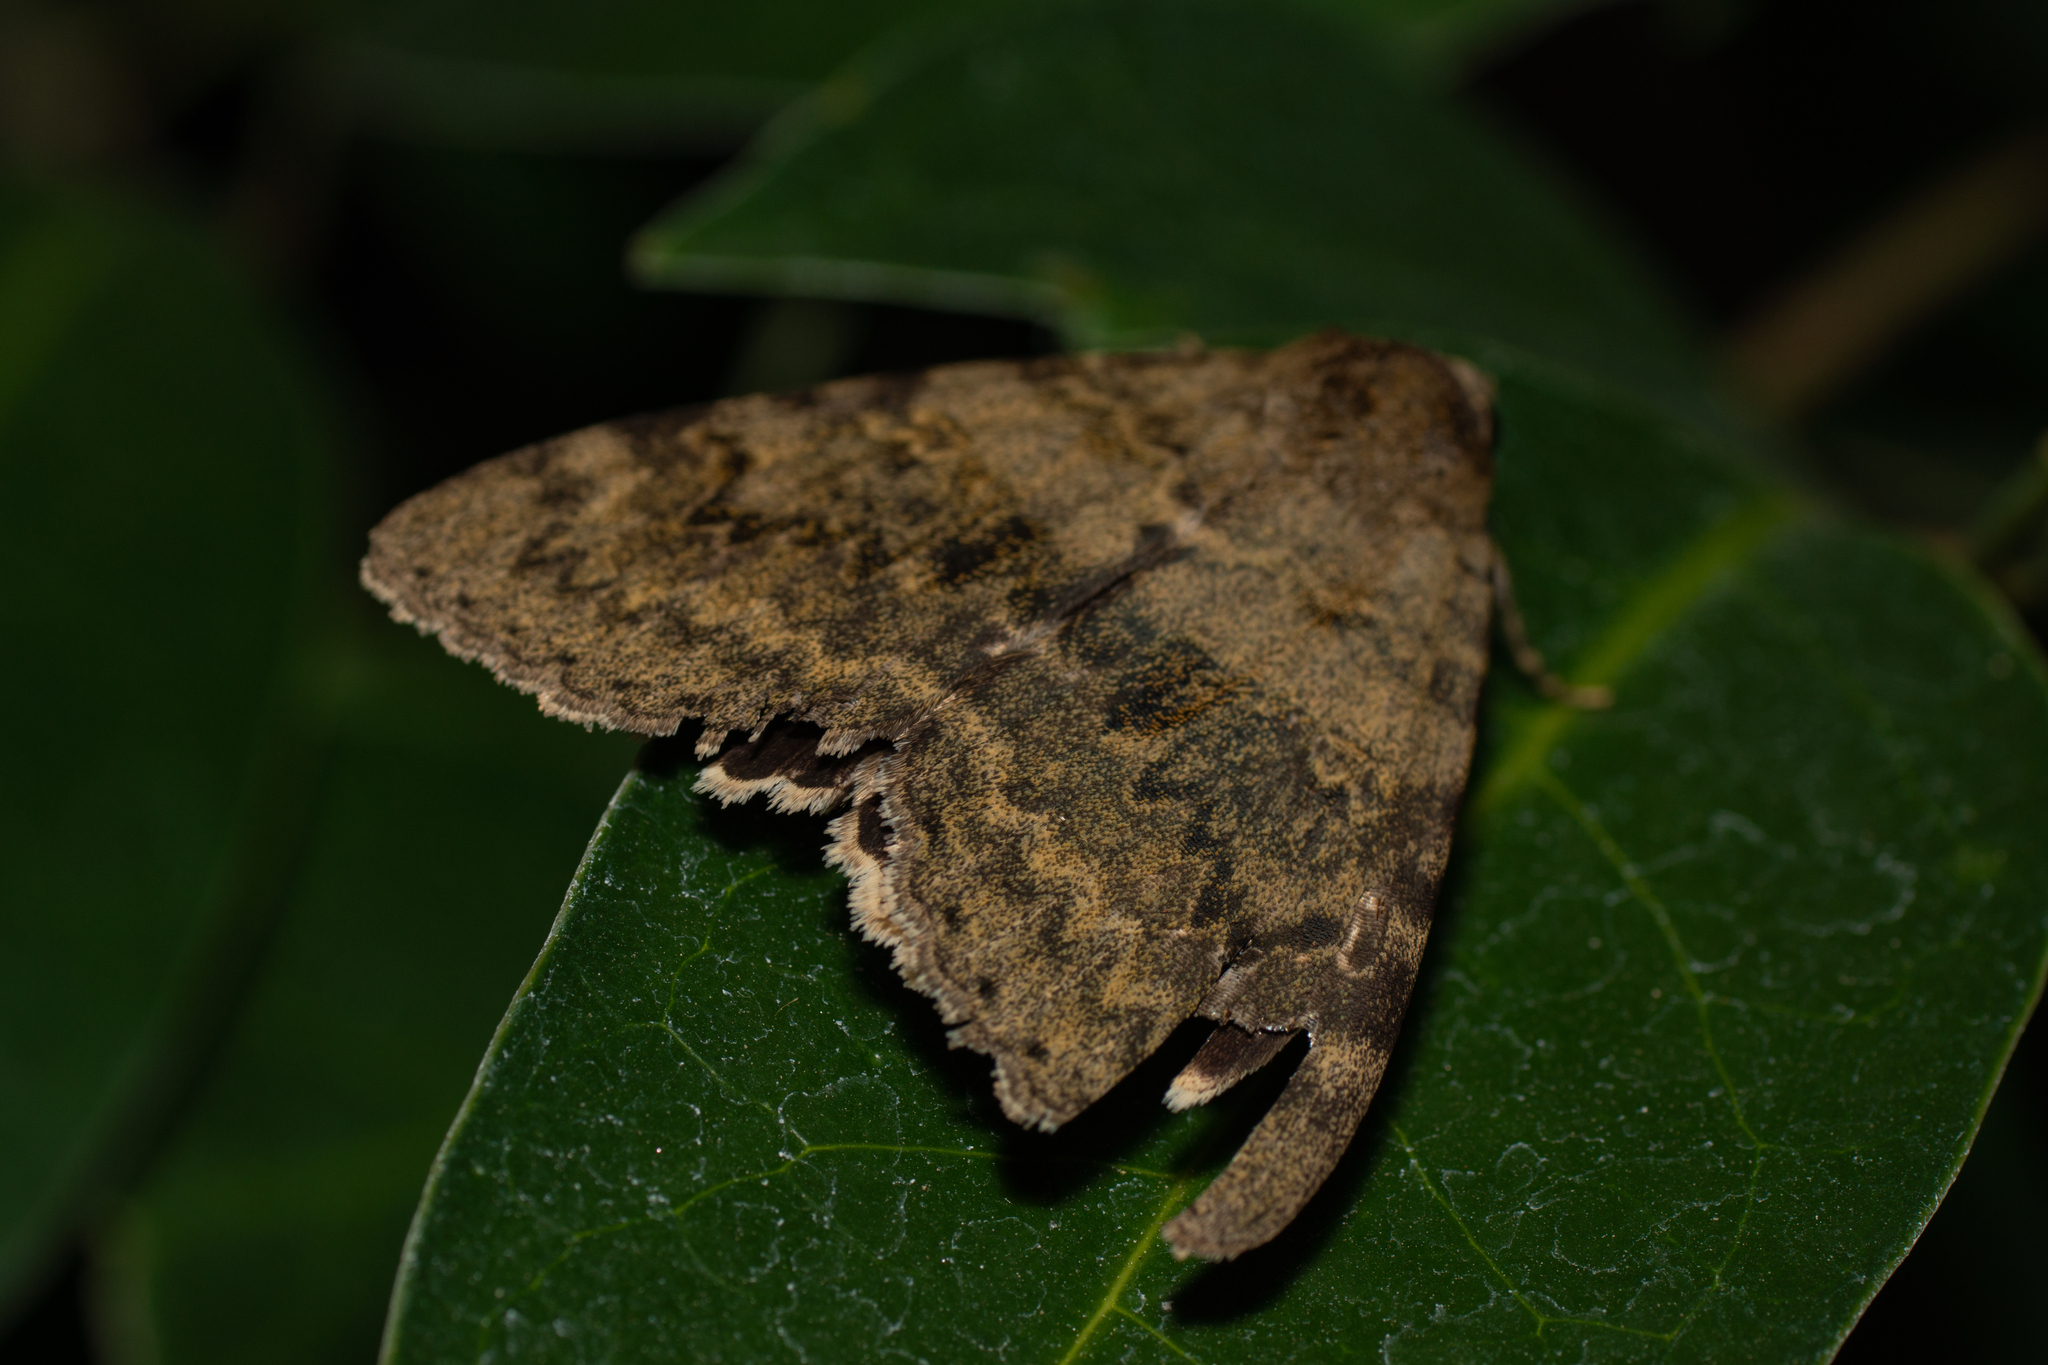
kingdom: Animalia
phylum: Arthropoda
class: Insecta
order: Lepidoptera
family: Erebidae
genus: Catocala
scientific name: Catocala elocata
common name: French red underwing
